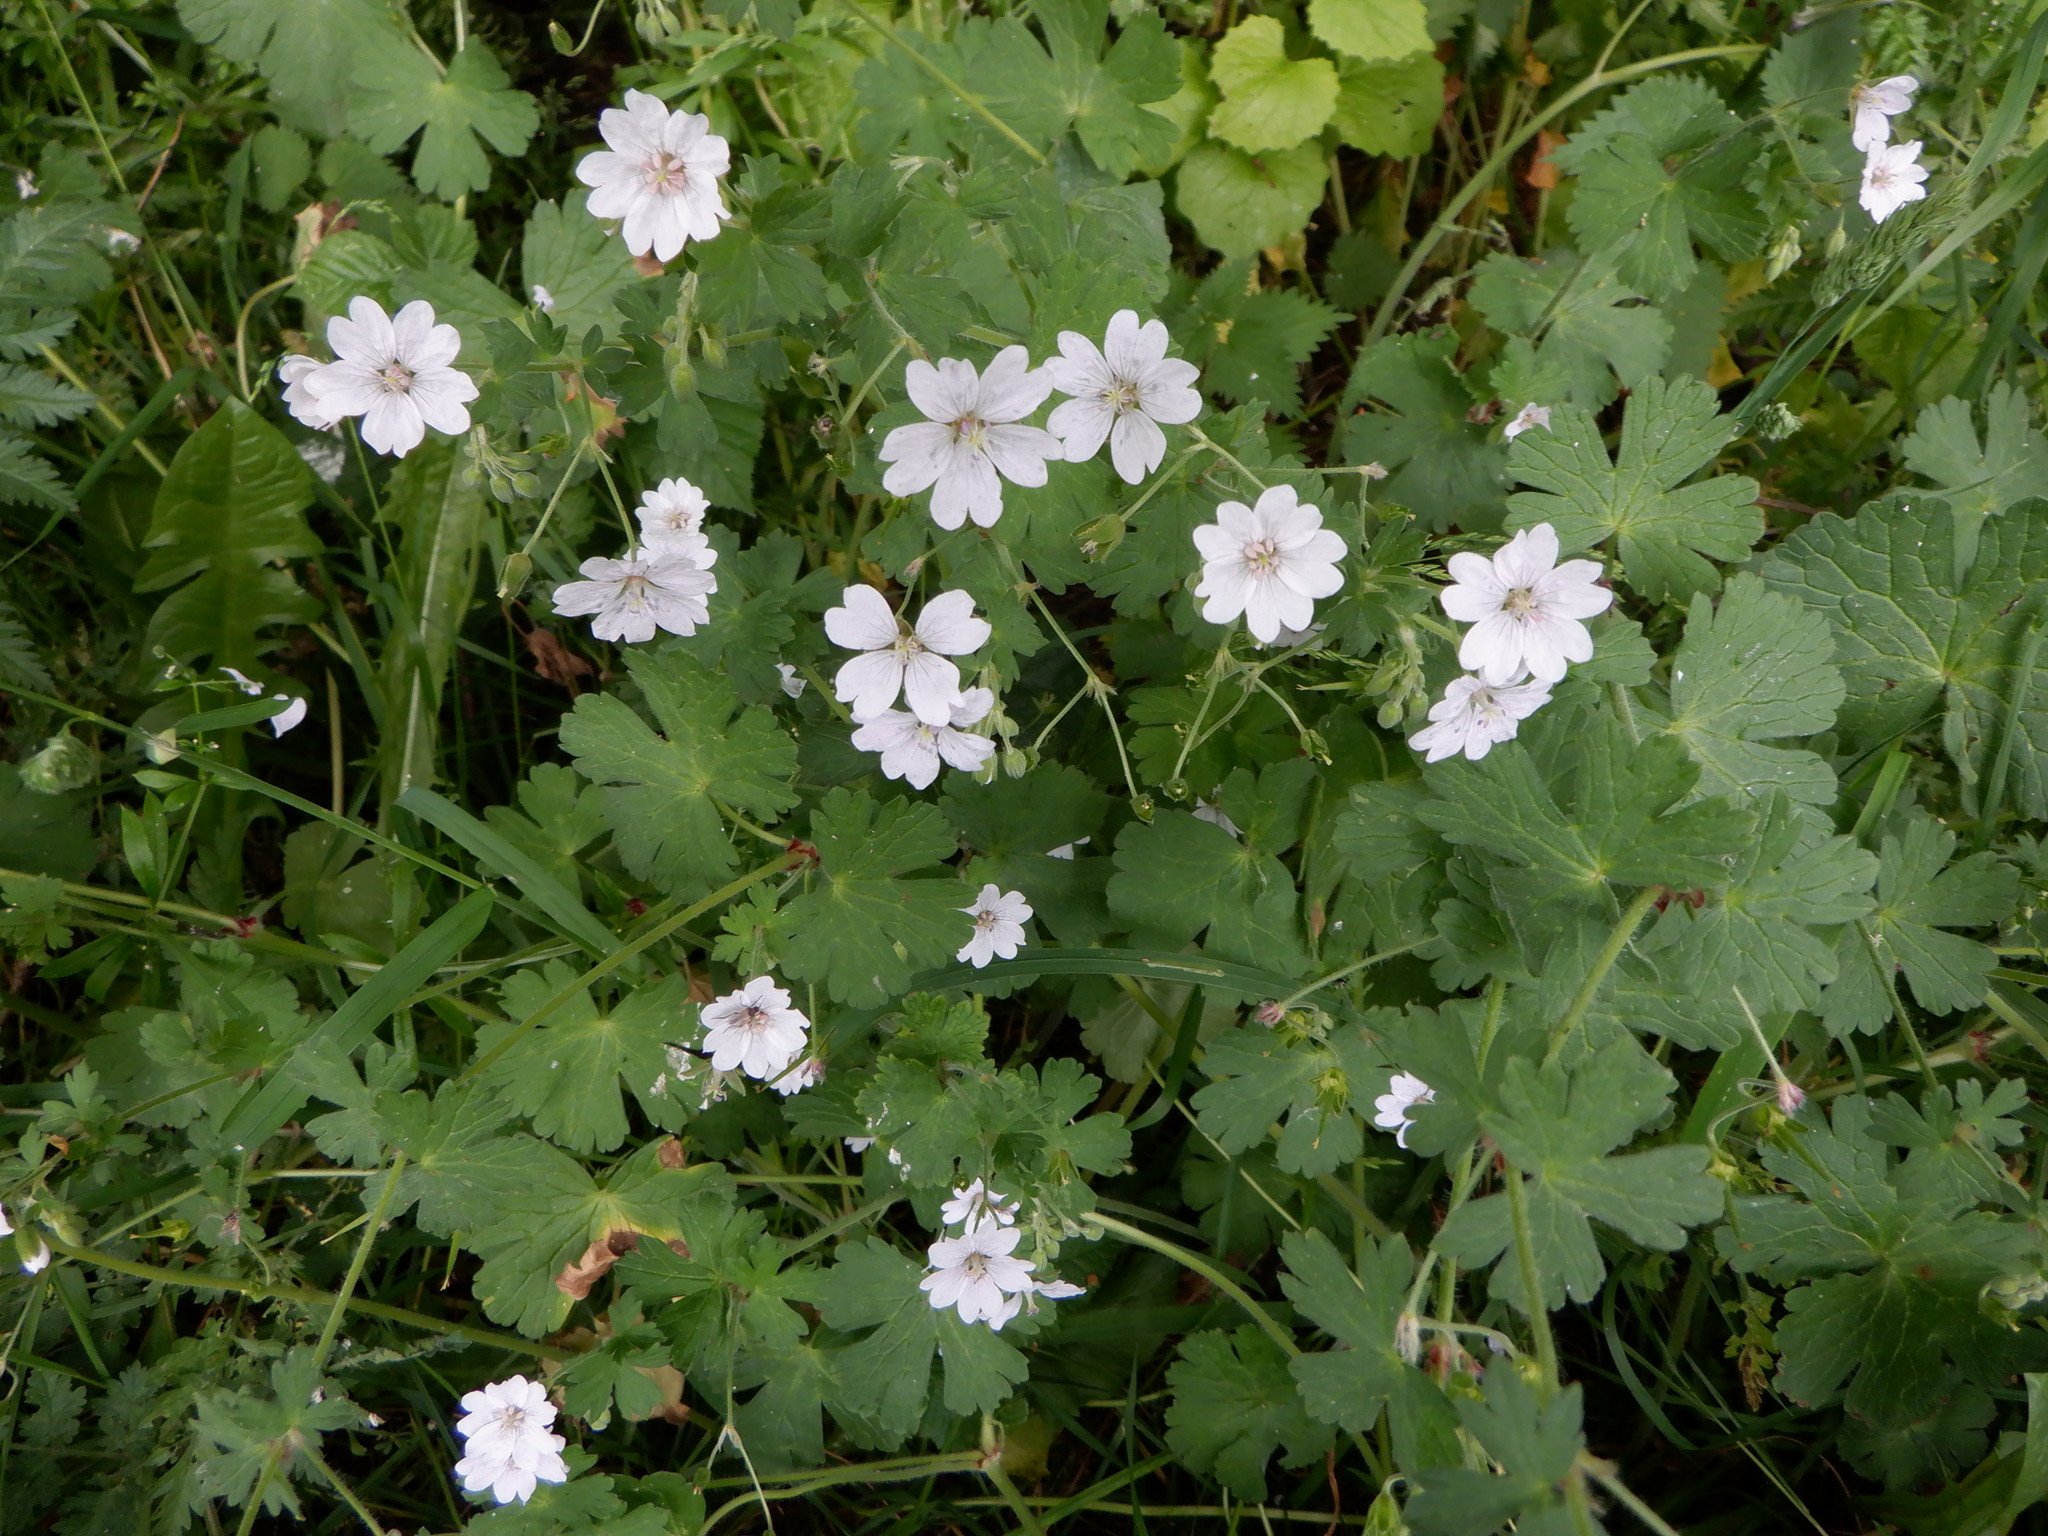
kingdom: Plantae
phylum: Tracheophyta
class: Magnoliopsida
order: Geraniales
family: Geraniaceae
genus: Geranium
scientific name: Geranium pyrenaicum
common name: Hedgerow crane's-bill
